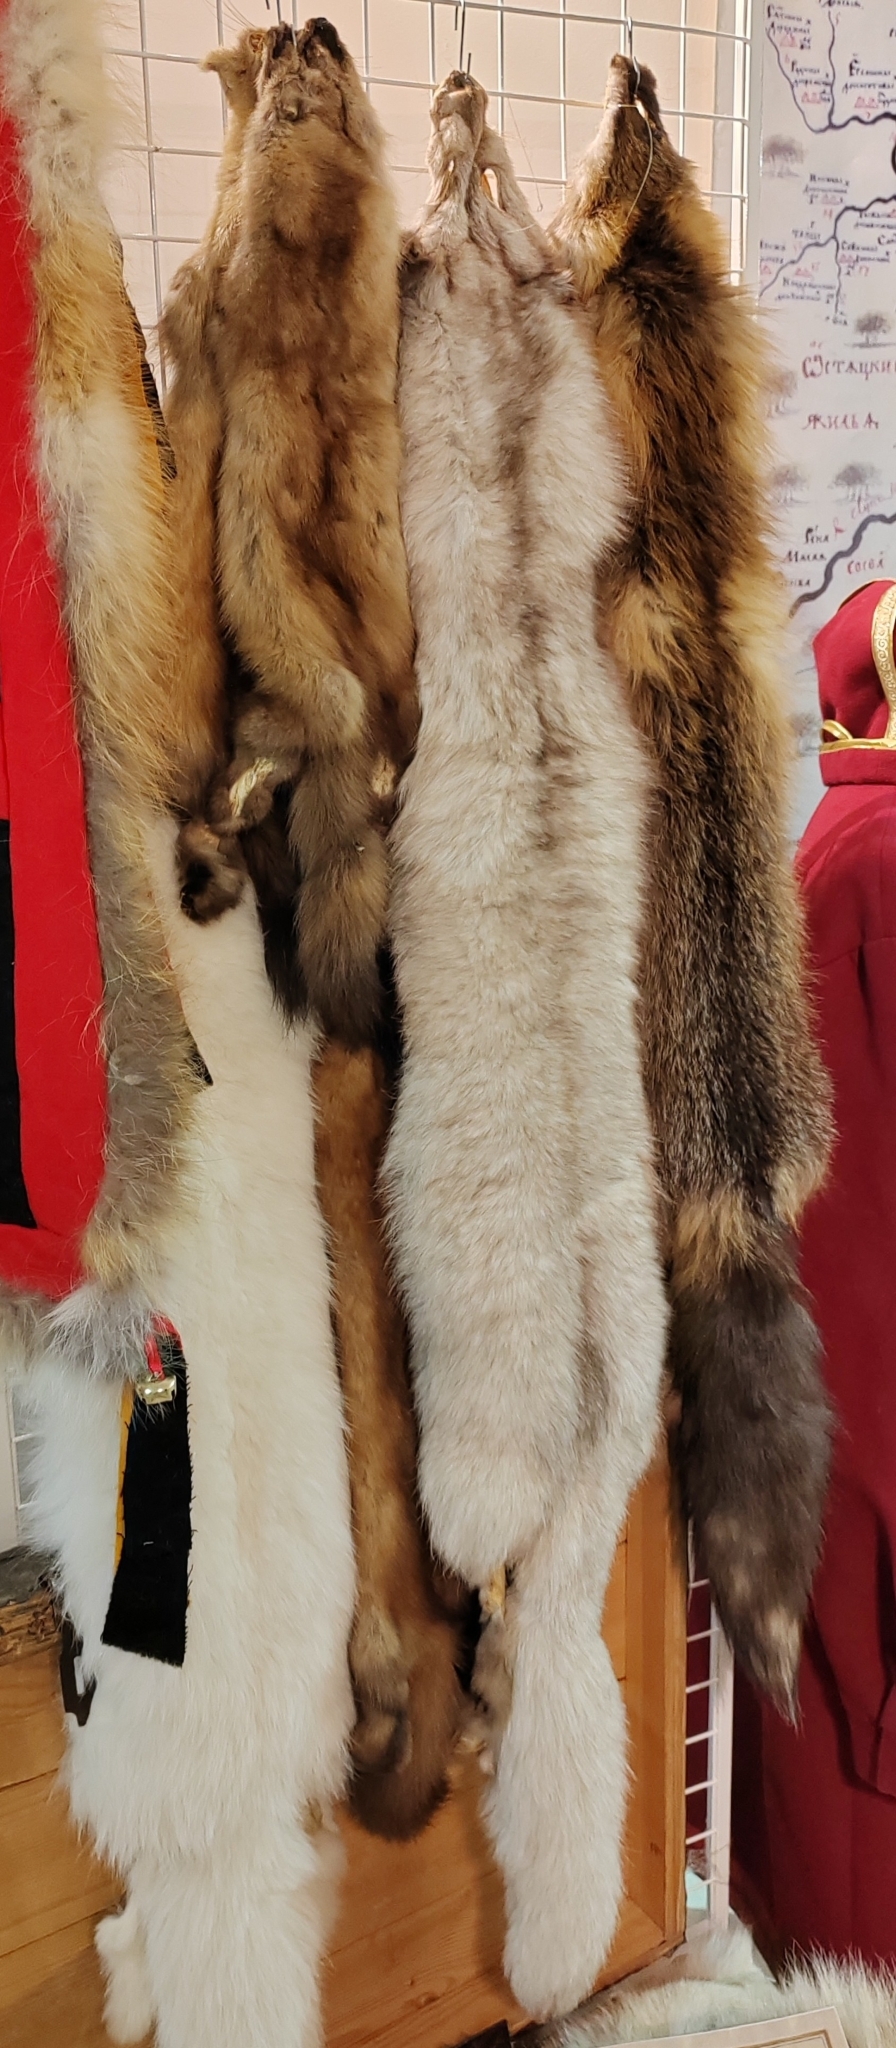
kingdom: Animalia
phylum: Chordata
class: Mammalia
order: Carnivora
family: Canidae
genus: Vulpes
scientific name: Vulpes lagopus
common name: Arctic fox
